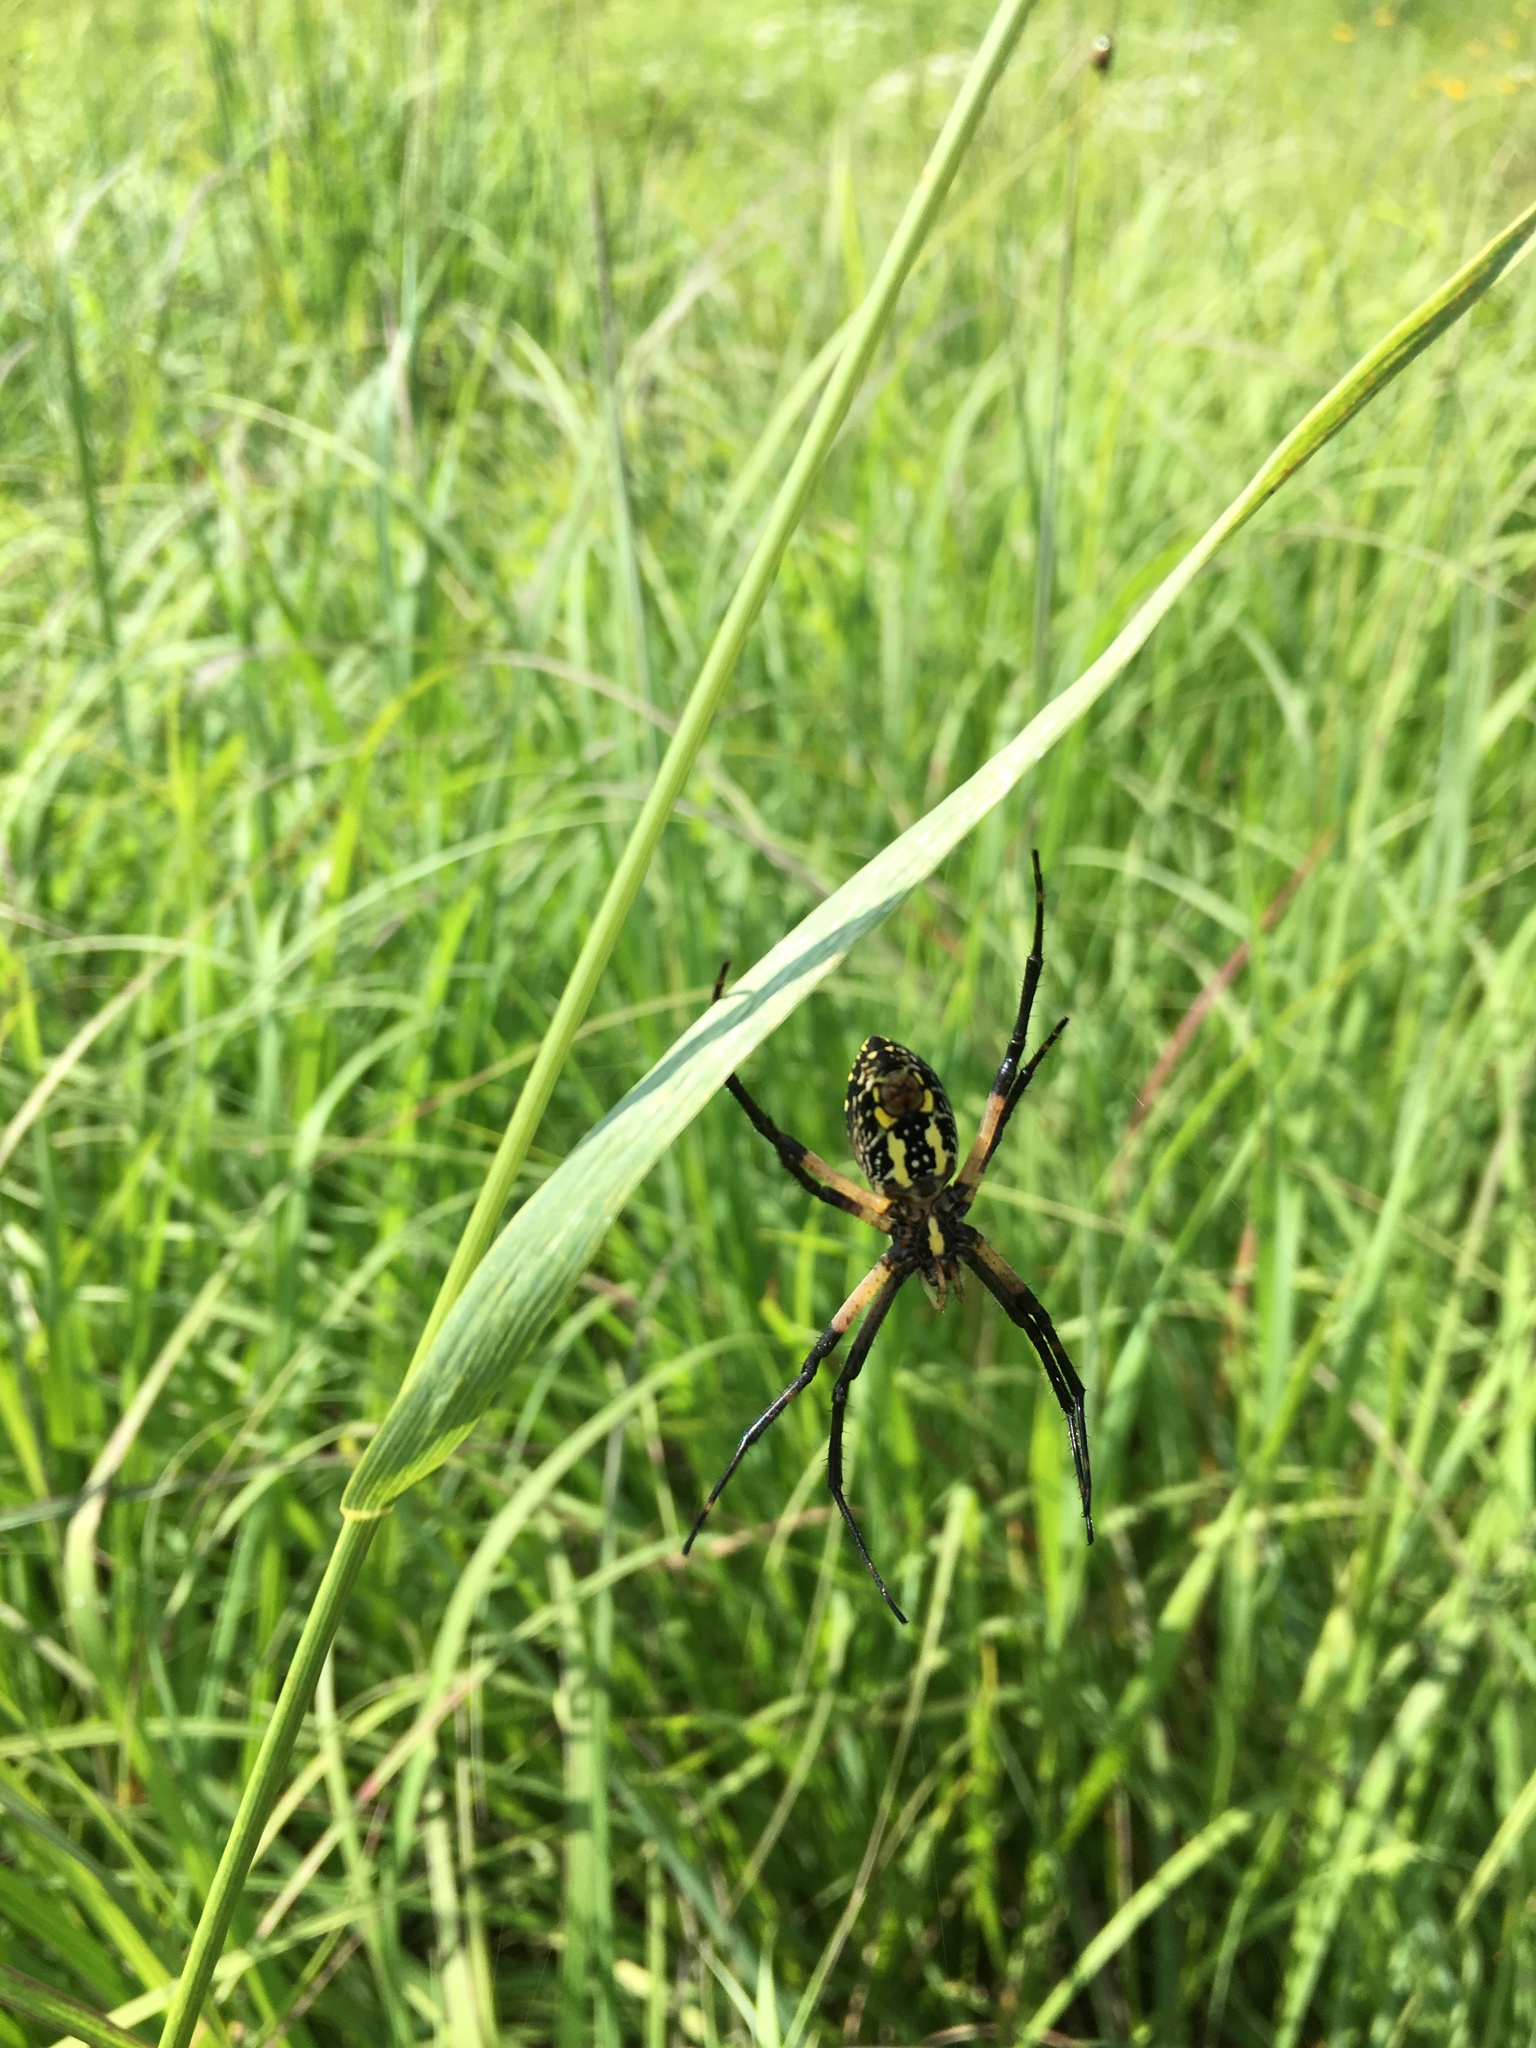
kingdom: Animalia
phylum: Arthropoda
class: Arachnida
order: Araneae
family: Araneidae
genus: Argiope
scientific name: Argiope aurantia
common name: Orb weavers
